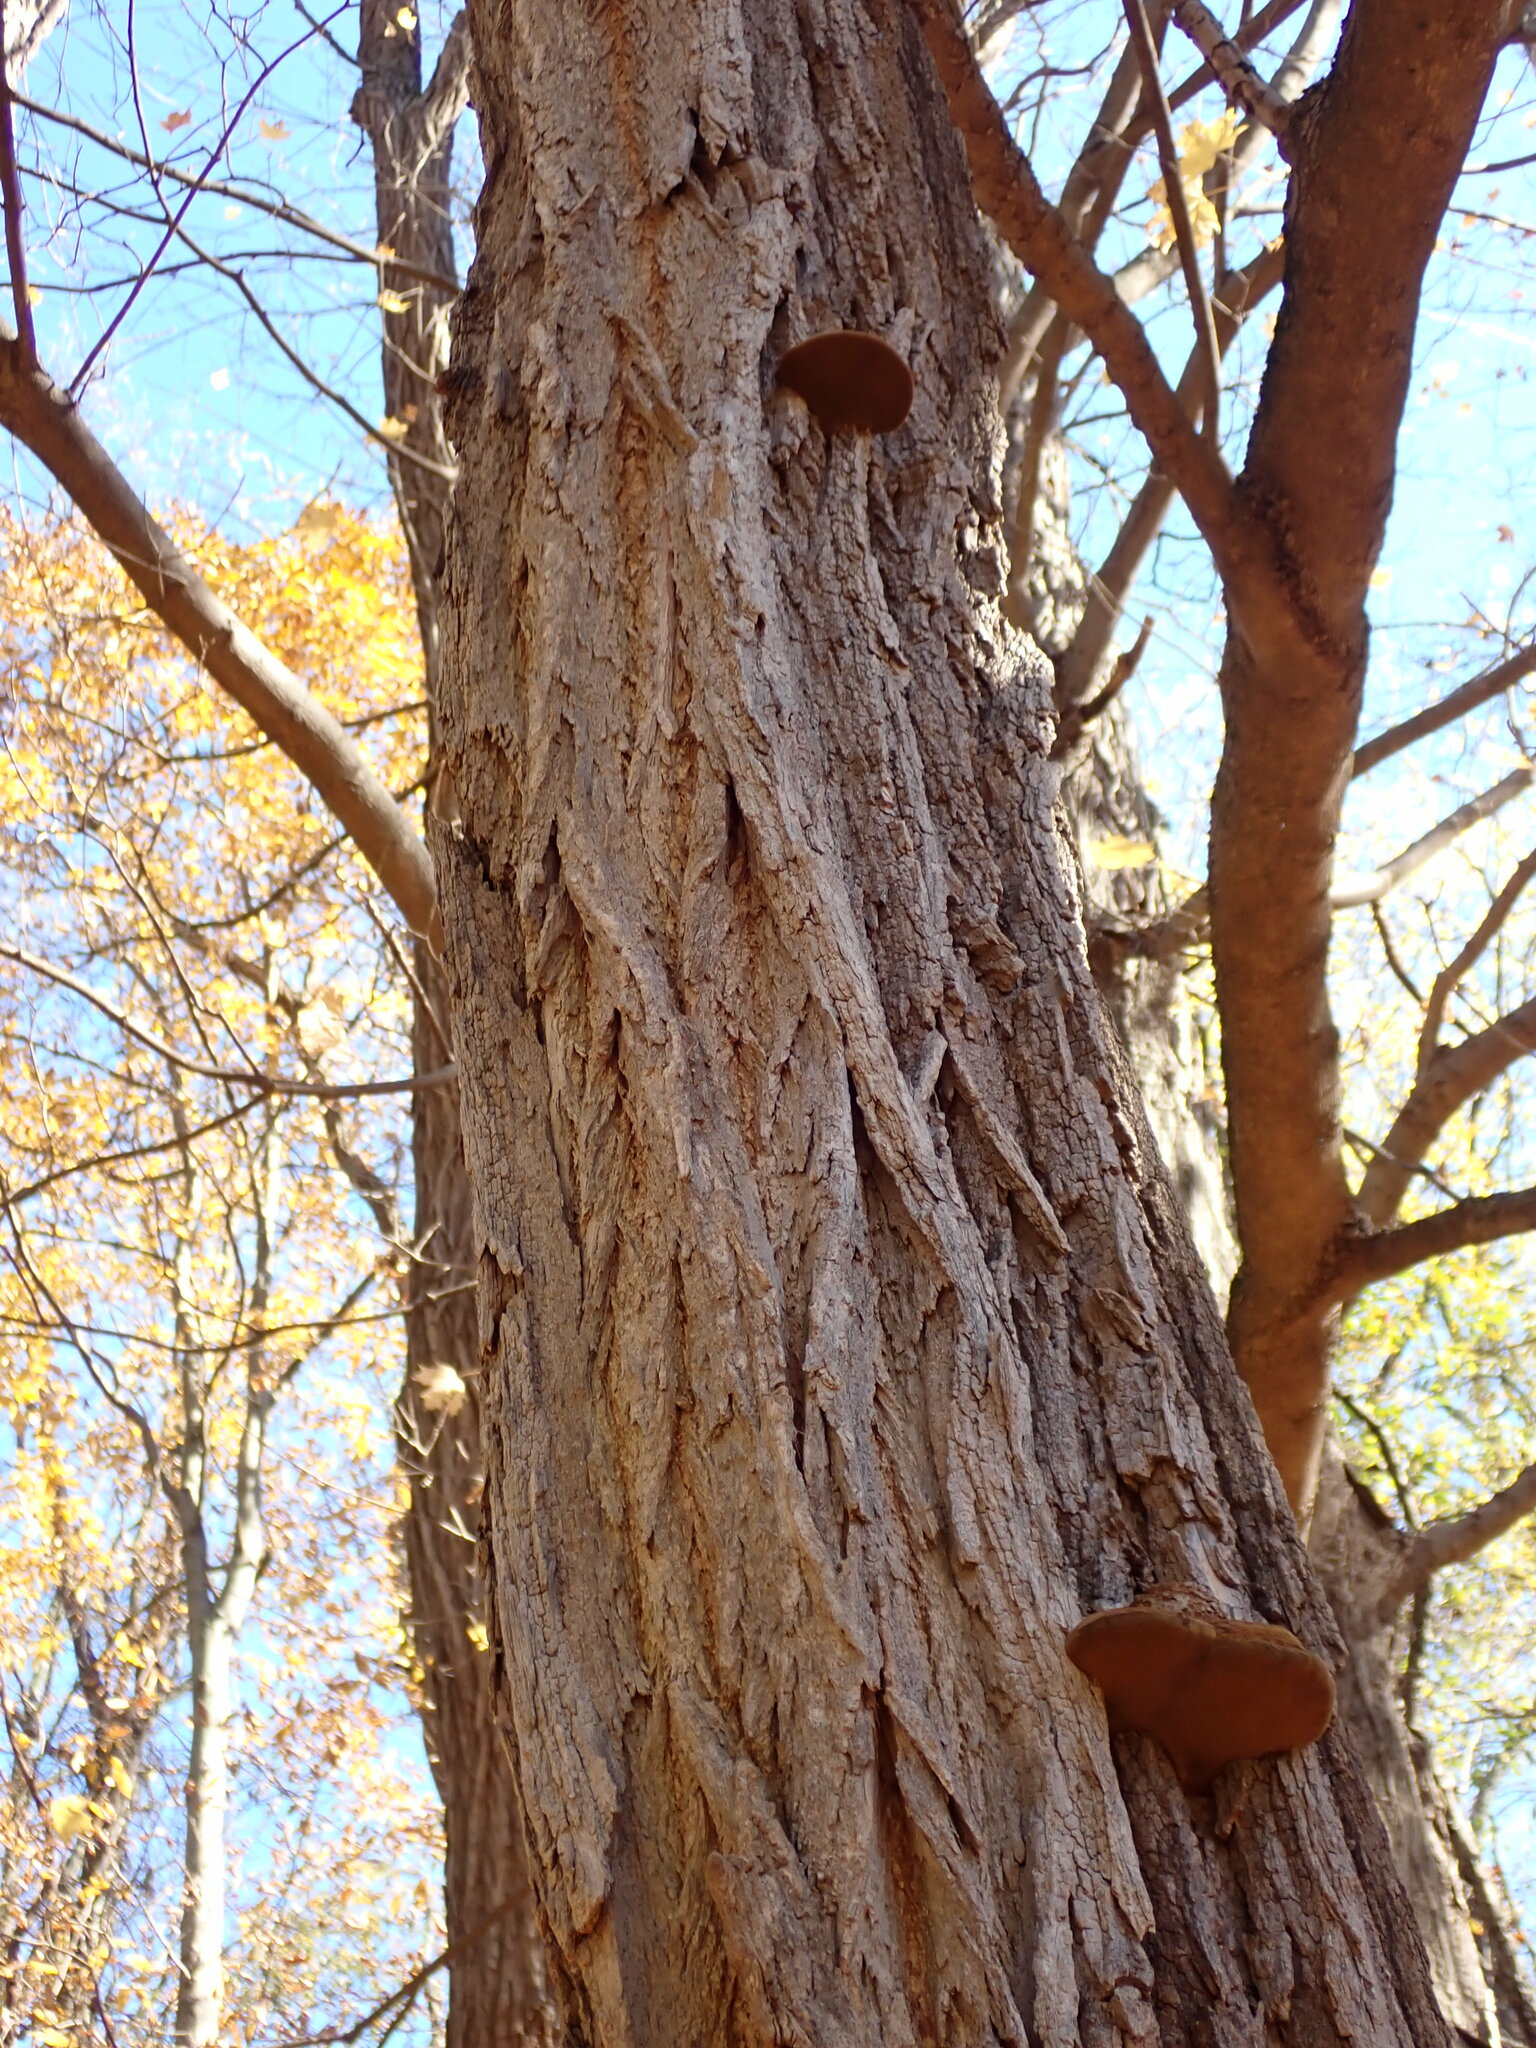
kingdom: Plantae
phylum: Tracheophyta
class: Magnoliopsida
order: Fabales
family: Fabaceae
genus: Robinia
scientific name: Robinia pseudoacacia
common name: Black locust
